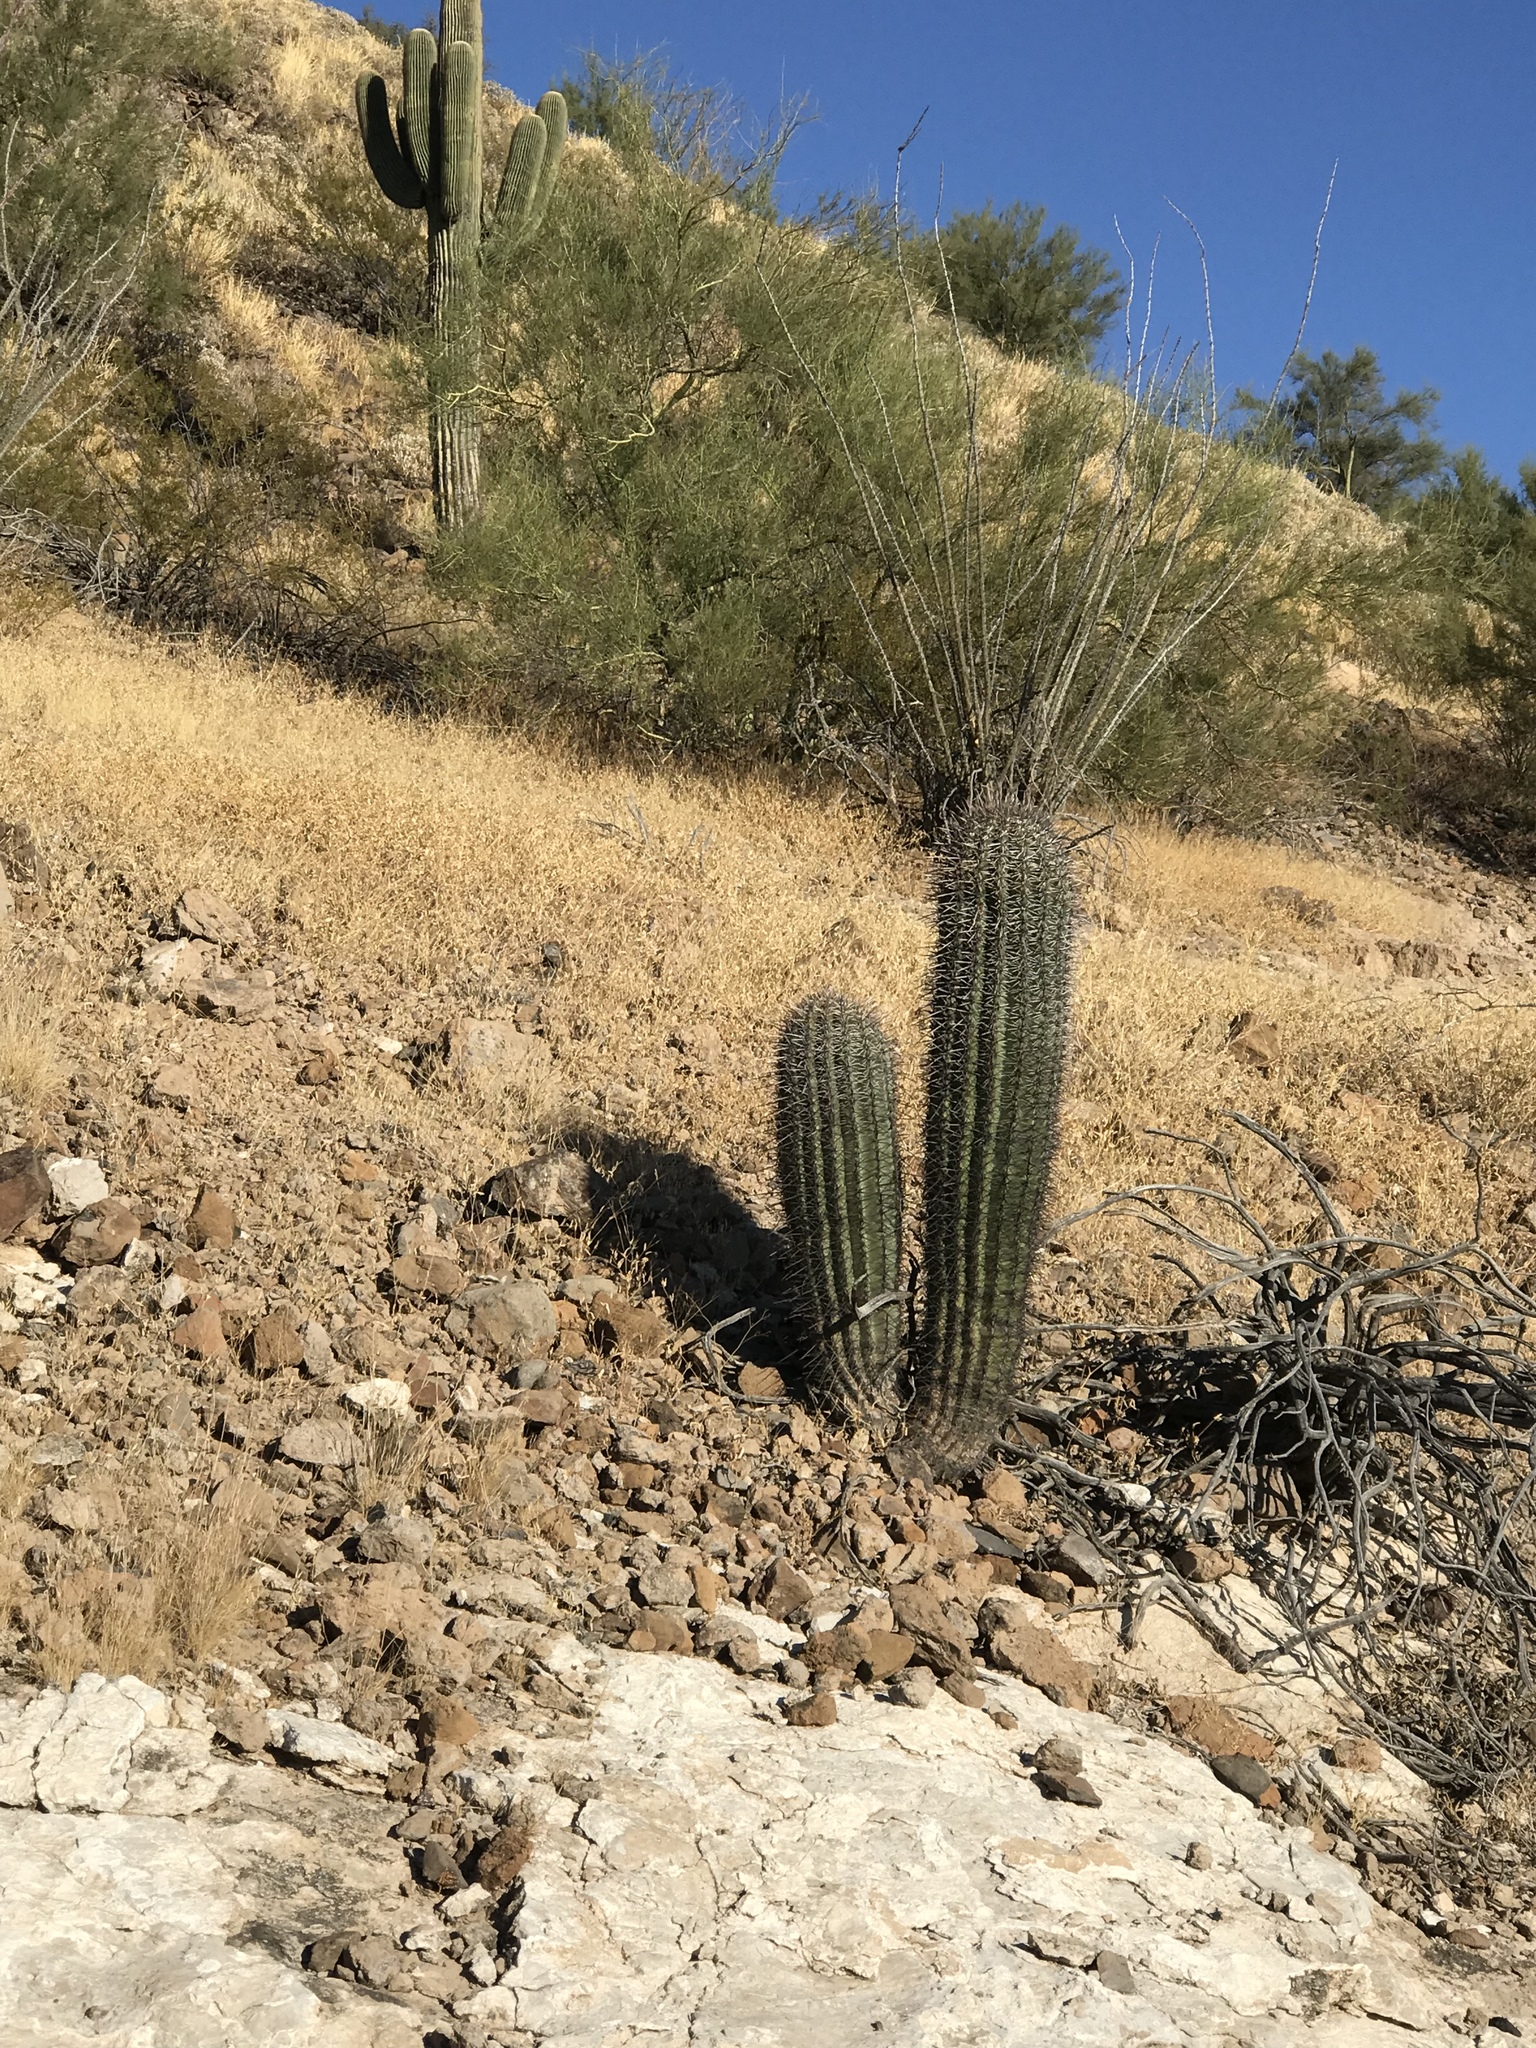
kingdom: Plantae
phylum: Tracheophyta
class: Magnoliopsida
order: Caryophyllales
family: Cactaceae
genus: Carnegiea
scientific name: Carnegiea gigantea
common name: Saguaro
